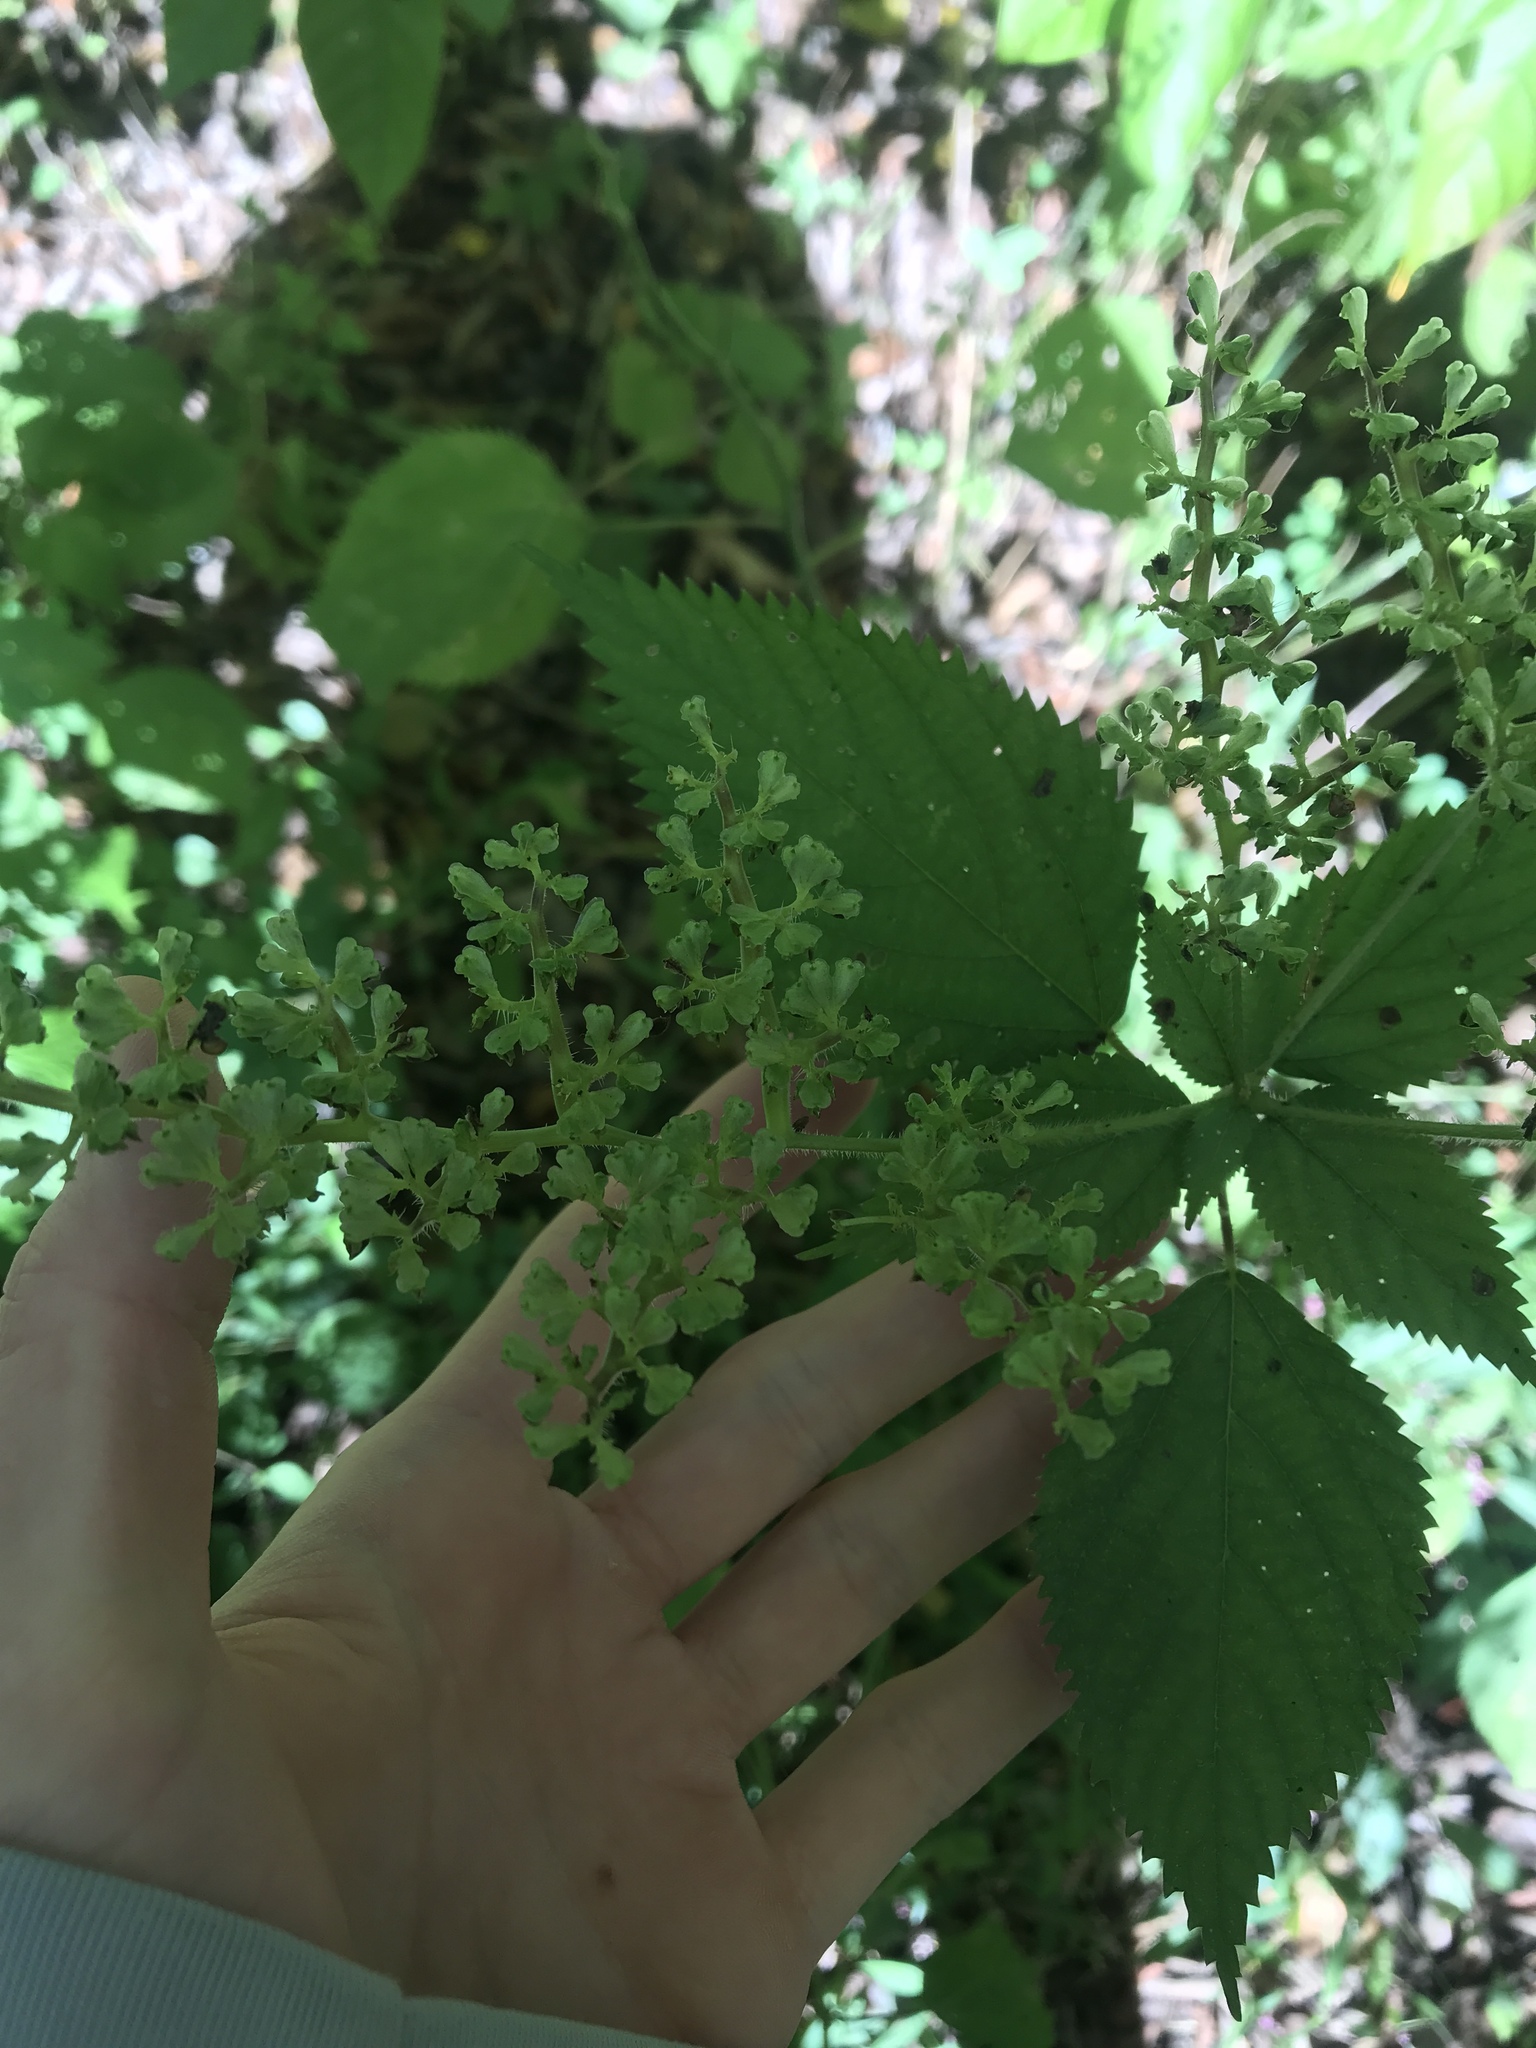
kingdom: Plantae
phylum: Tracheophyta
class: Magnoliopsida
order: Rosales
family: Urticaceae
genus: Laportea
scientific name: Laportea canadensis
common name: Canada nettle
